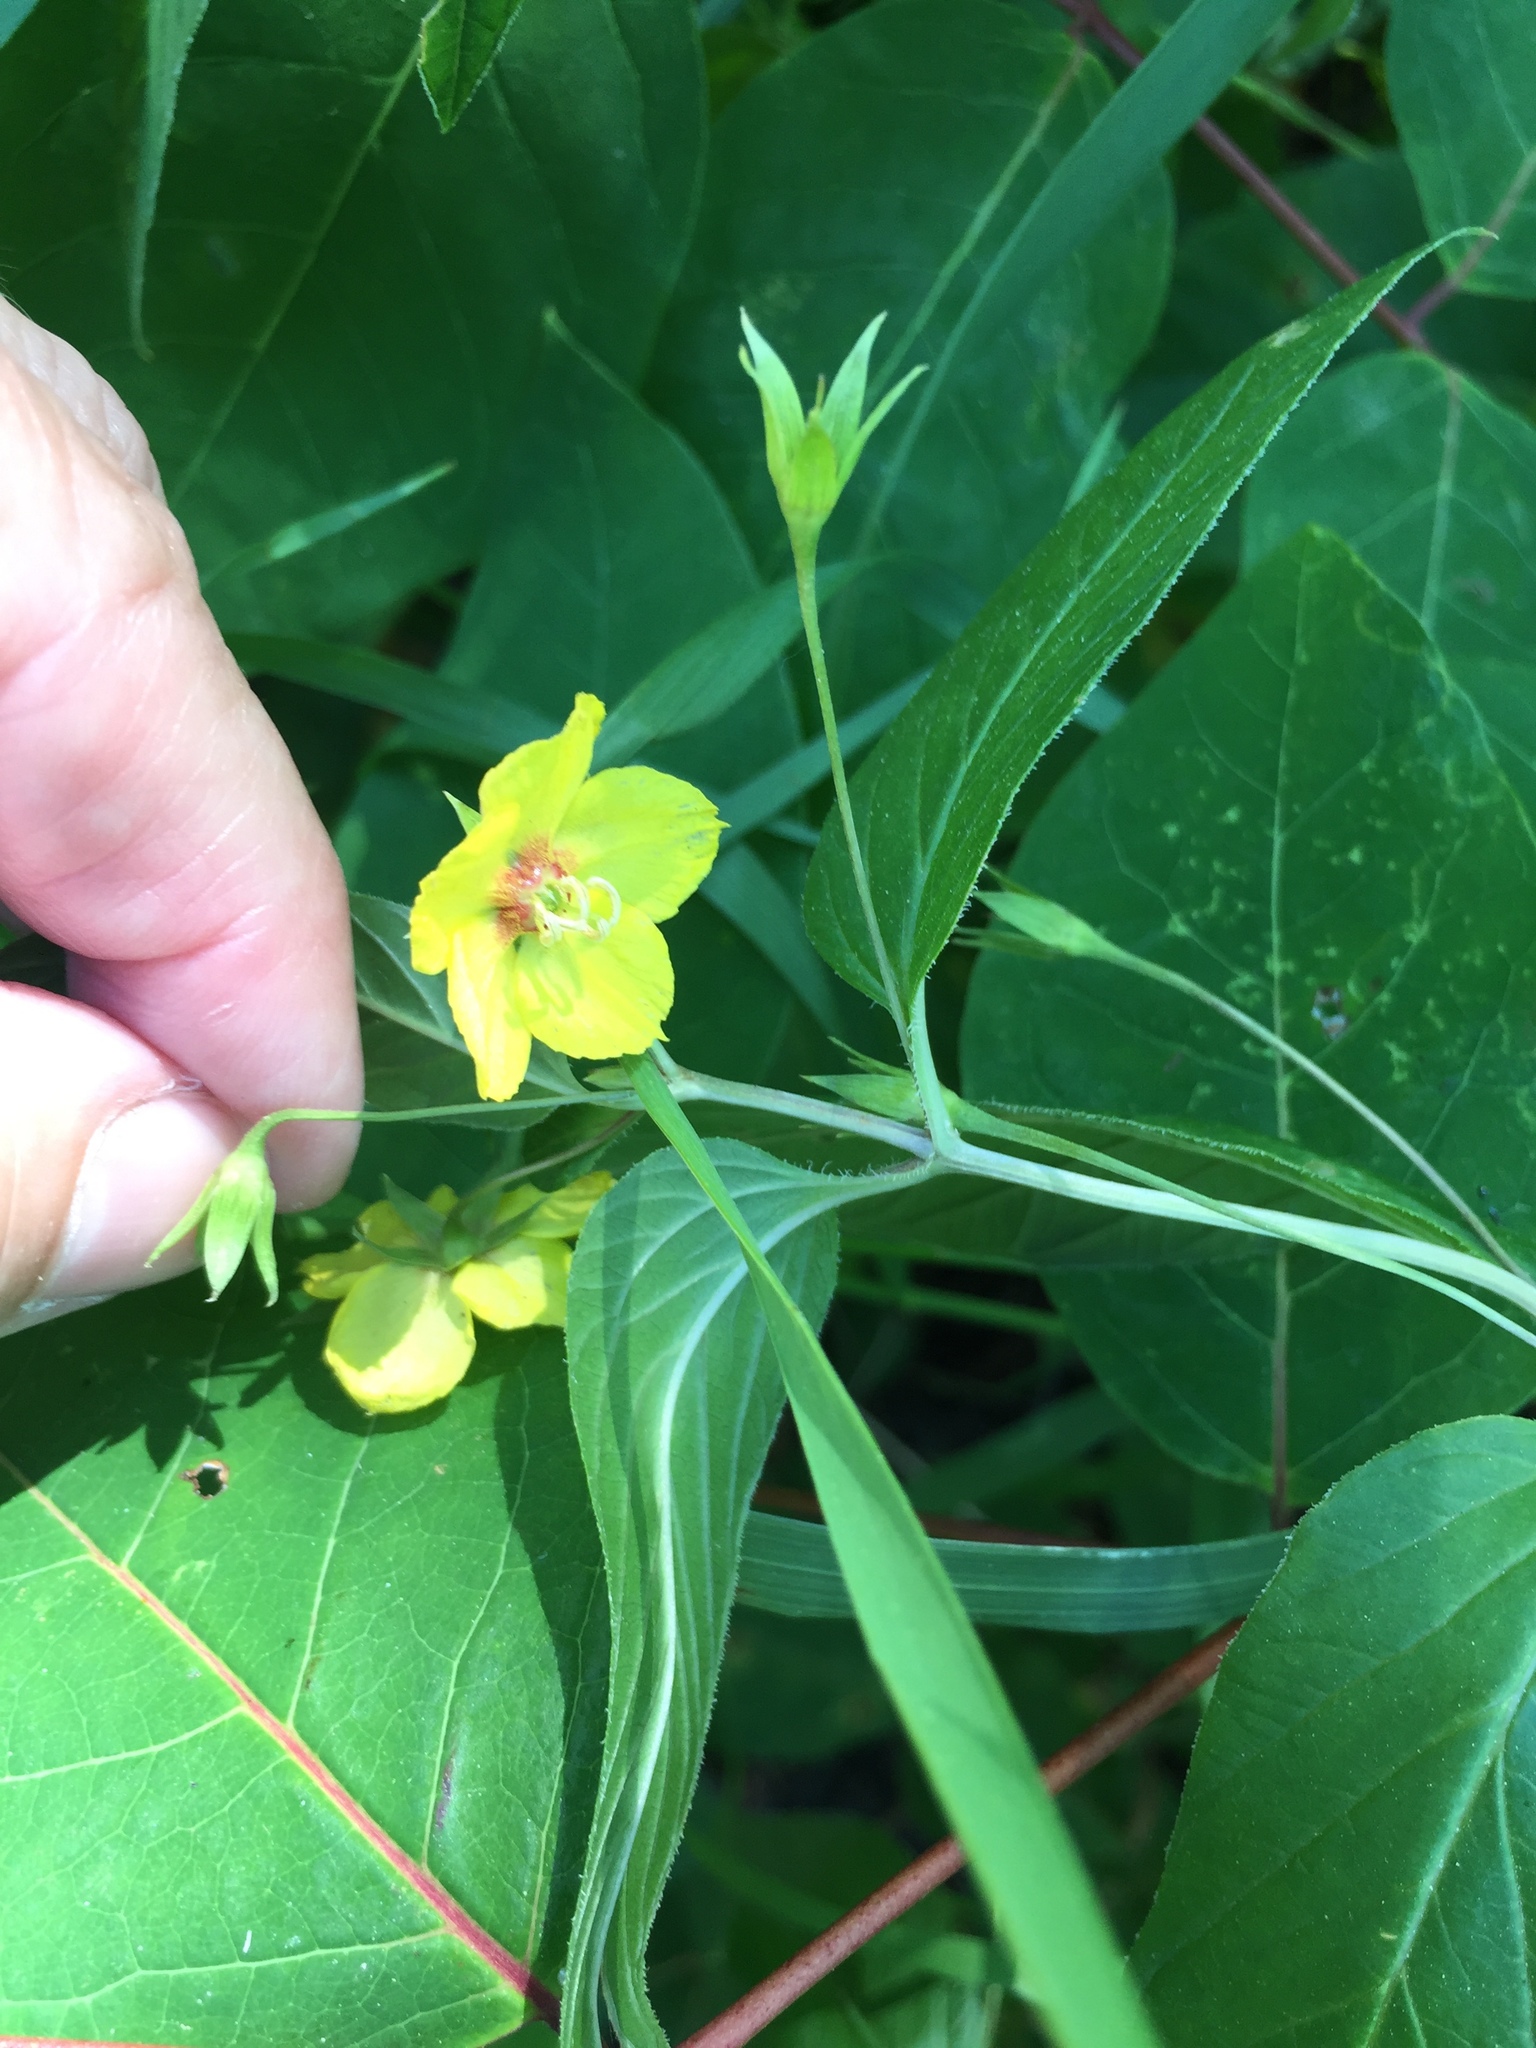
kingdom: Plantae
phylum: Tracheophyta
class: Magnoliopsida
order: Ericales
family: Primulaceae
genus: Lysimachia
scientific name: Lysimachia ciliata
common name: Fringed loosestrife
